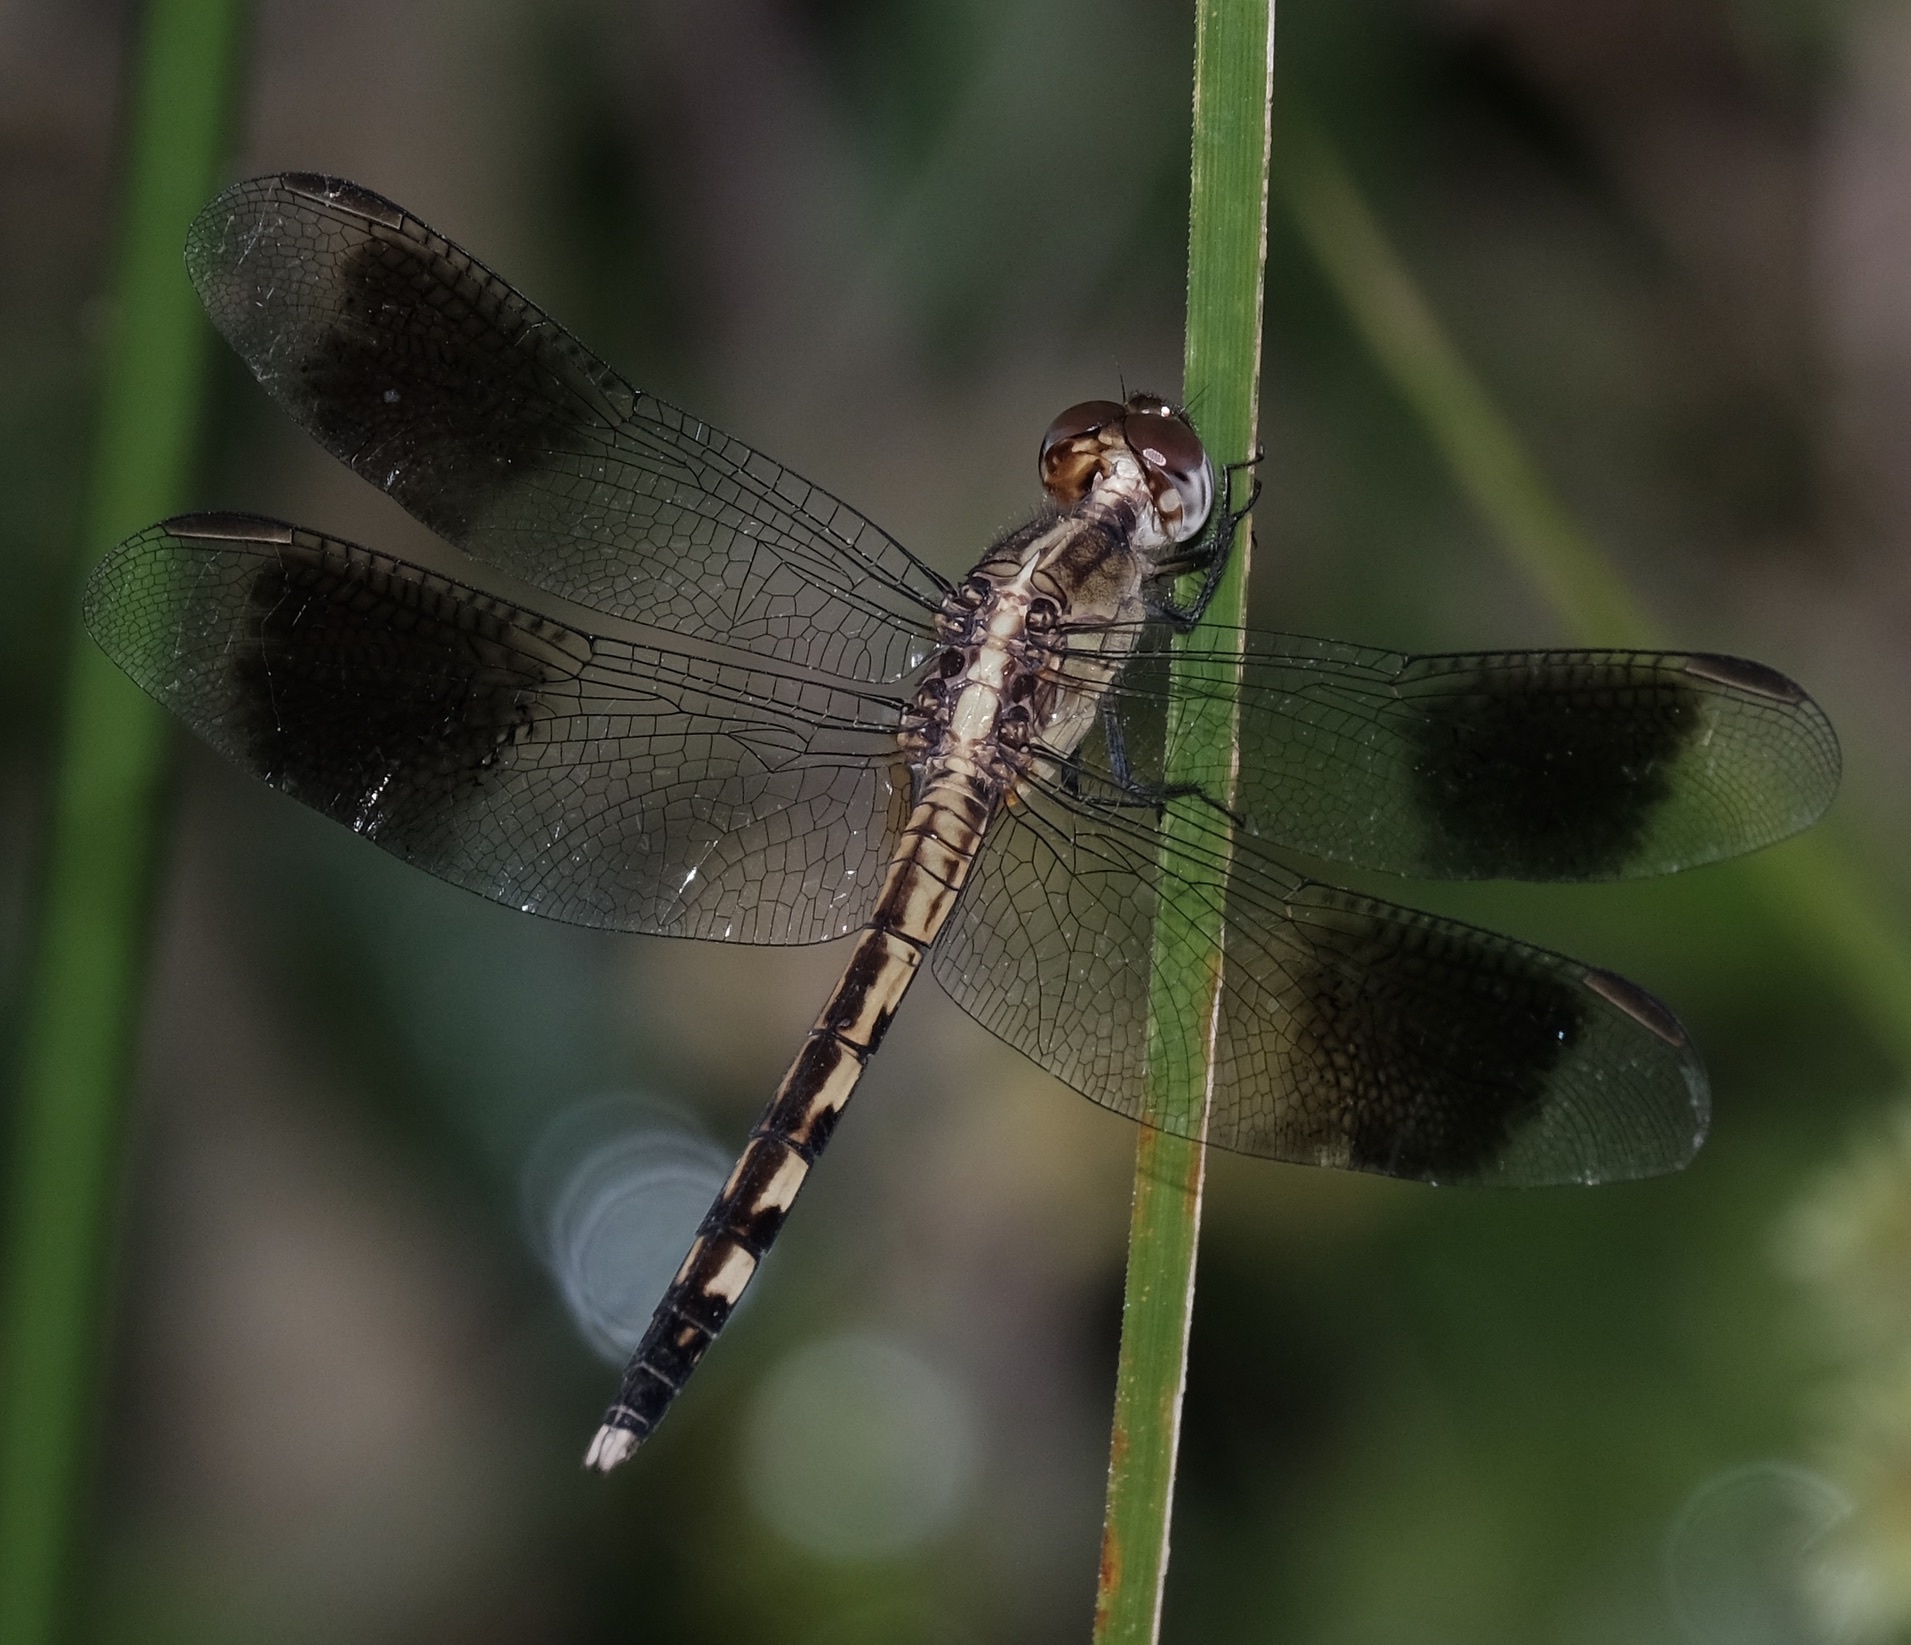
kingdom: Animalia
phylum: Arthropoda
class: Insecta
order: Odonata
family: Libellulidae
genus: Erythrodiplax
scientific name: Erythrodiplax umbrata
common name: Band-winged dragonlet
